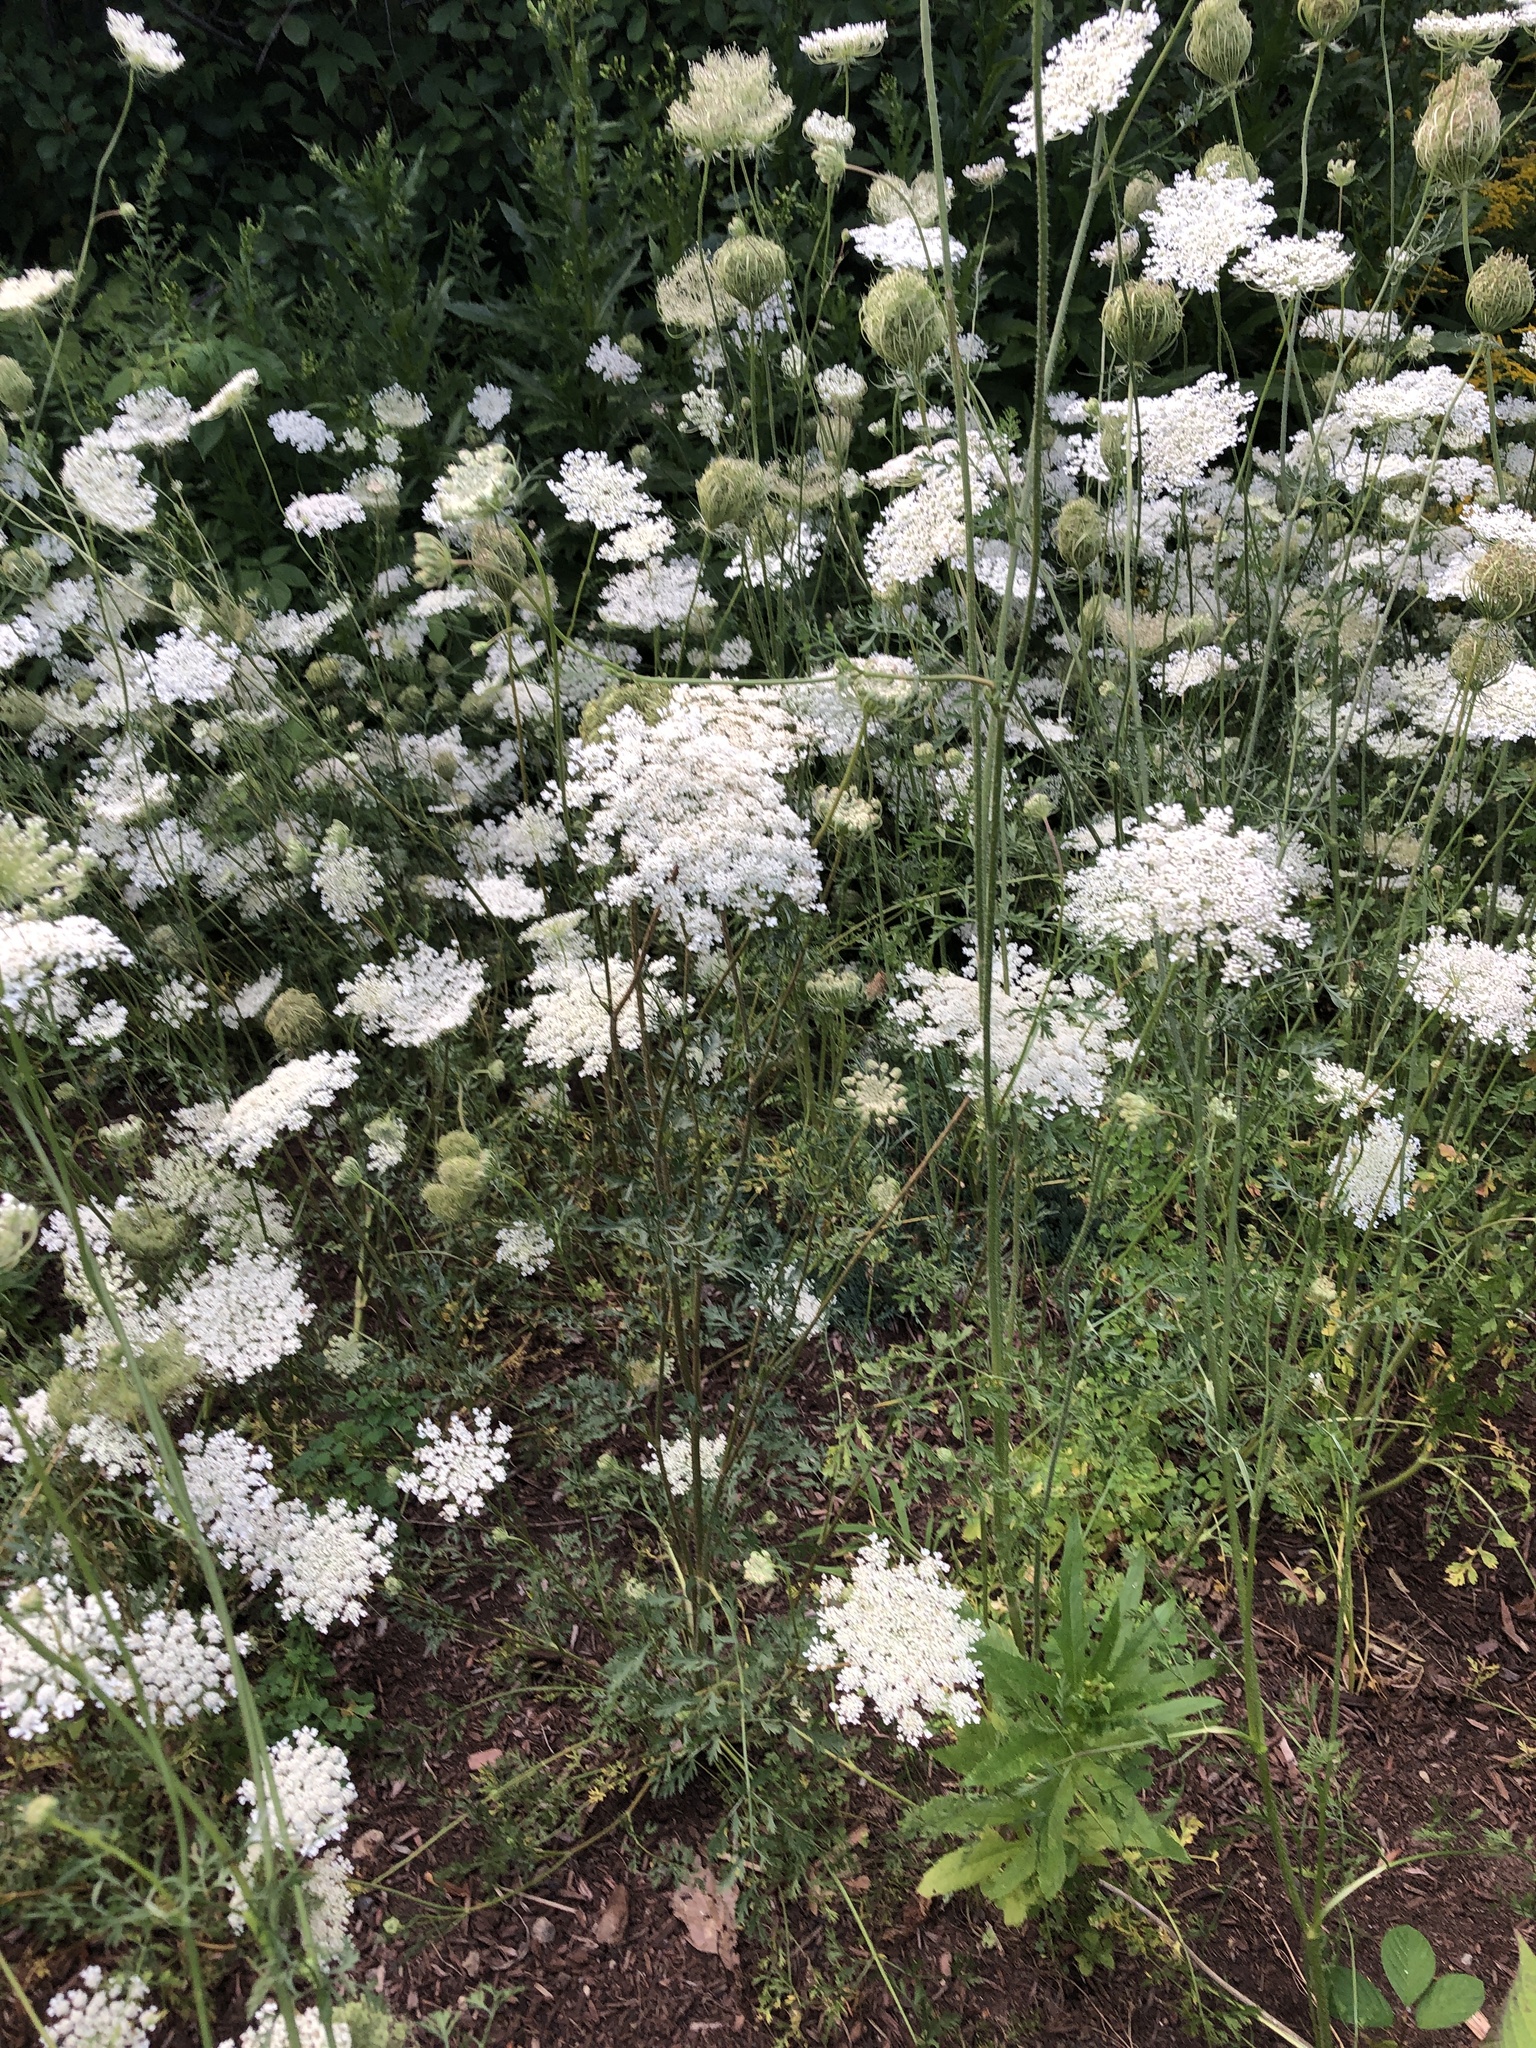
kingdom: Plantae
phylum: Tracheophyta
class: Magnoliopsida
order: Apiales
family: Apiaceae
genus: Daucus
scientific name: Daucus carota
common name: Wild carrot
